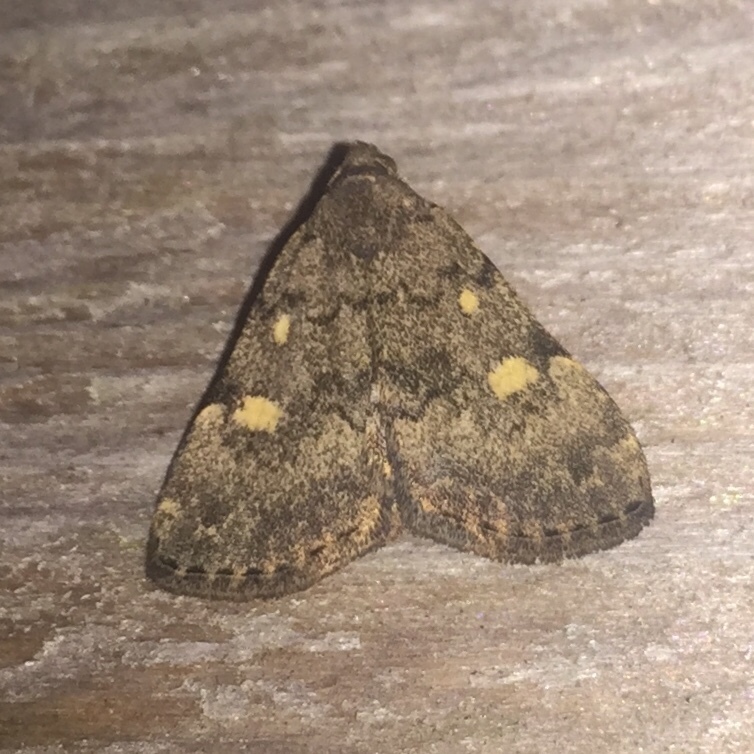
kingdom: Animalia
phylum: Arthropoda
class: Insecta
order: Lepidoptera
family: Erebidae
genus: Idia
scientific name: Idia aemula
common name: Common idia moth
